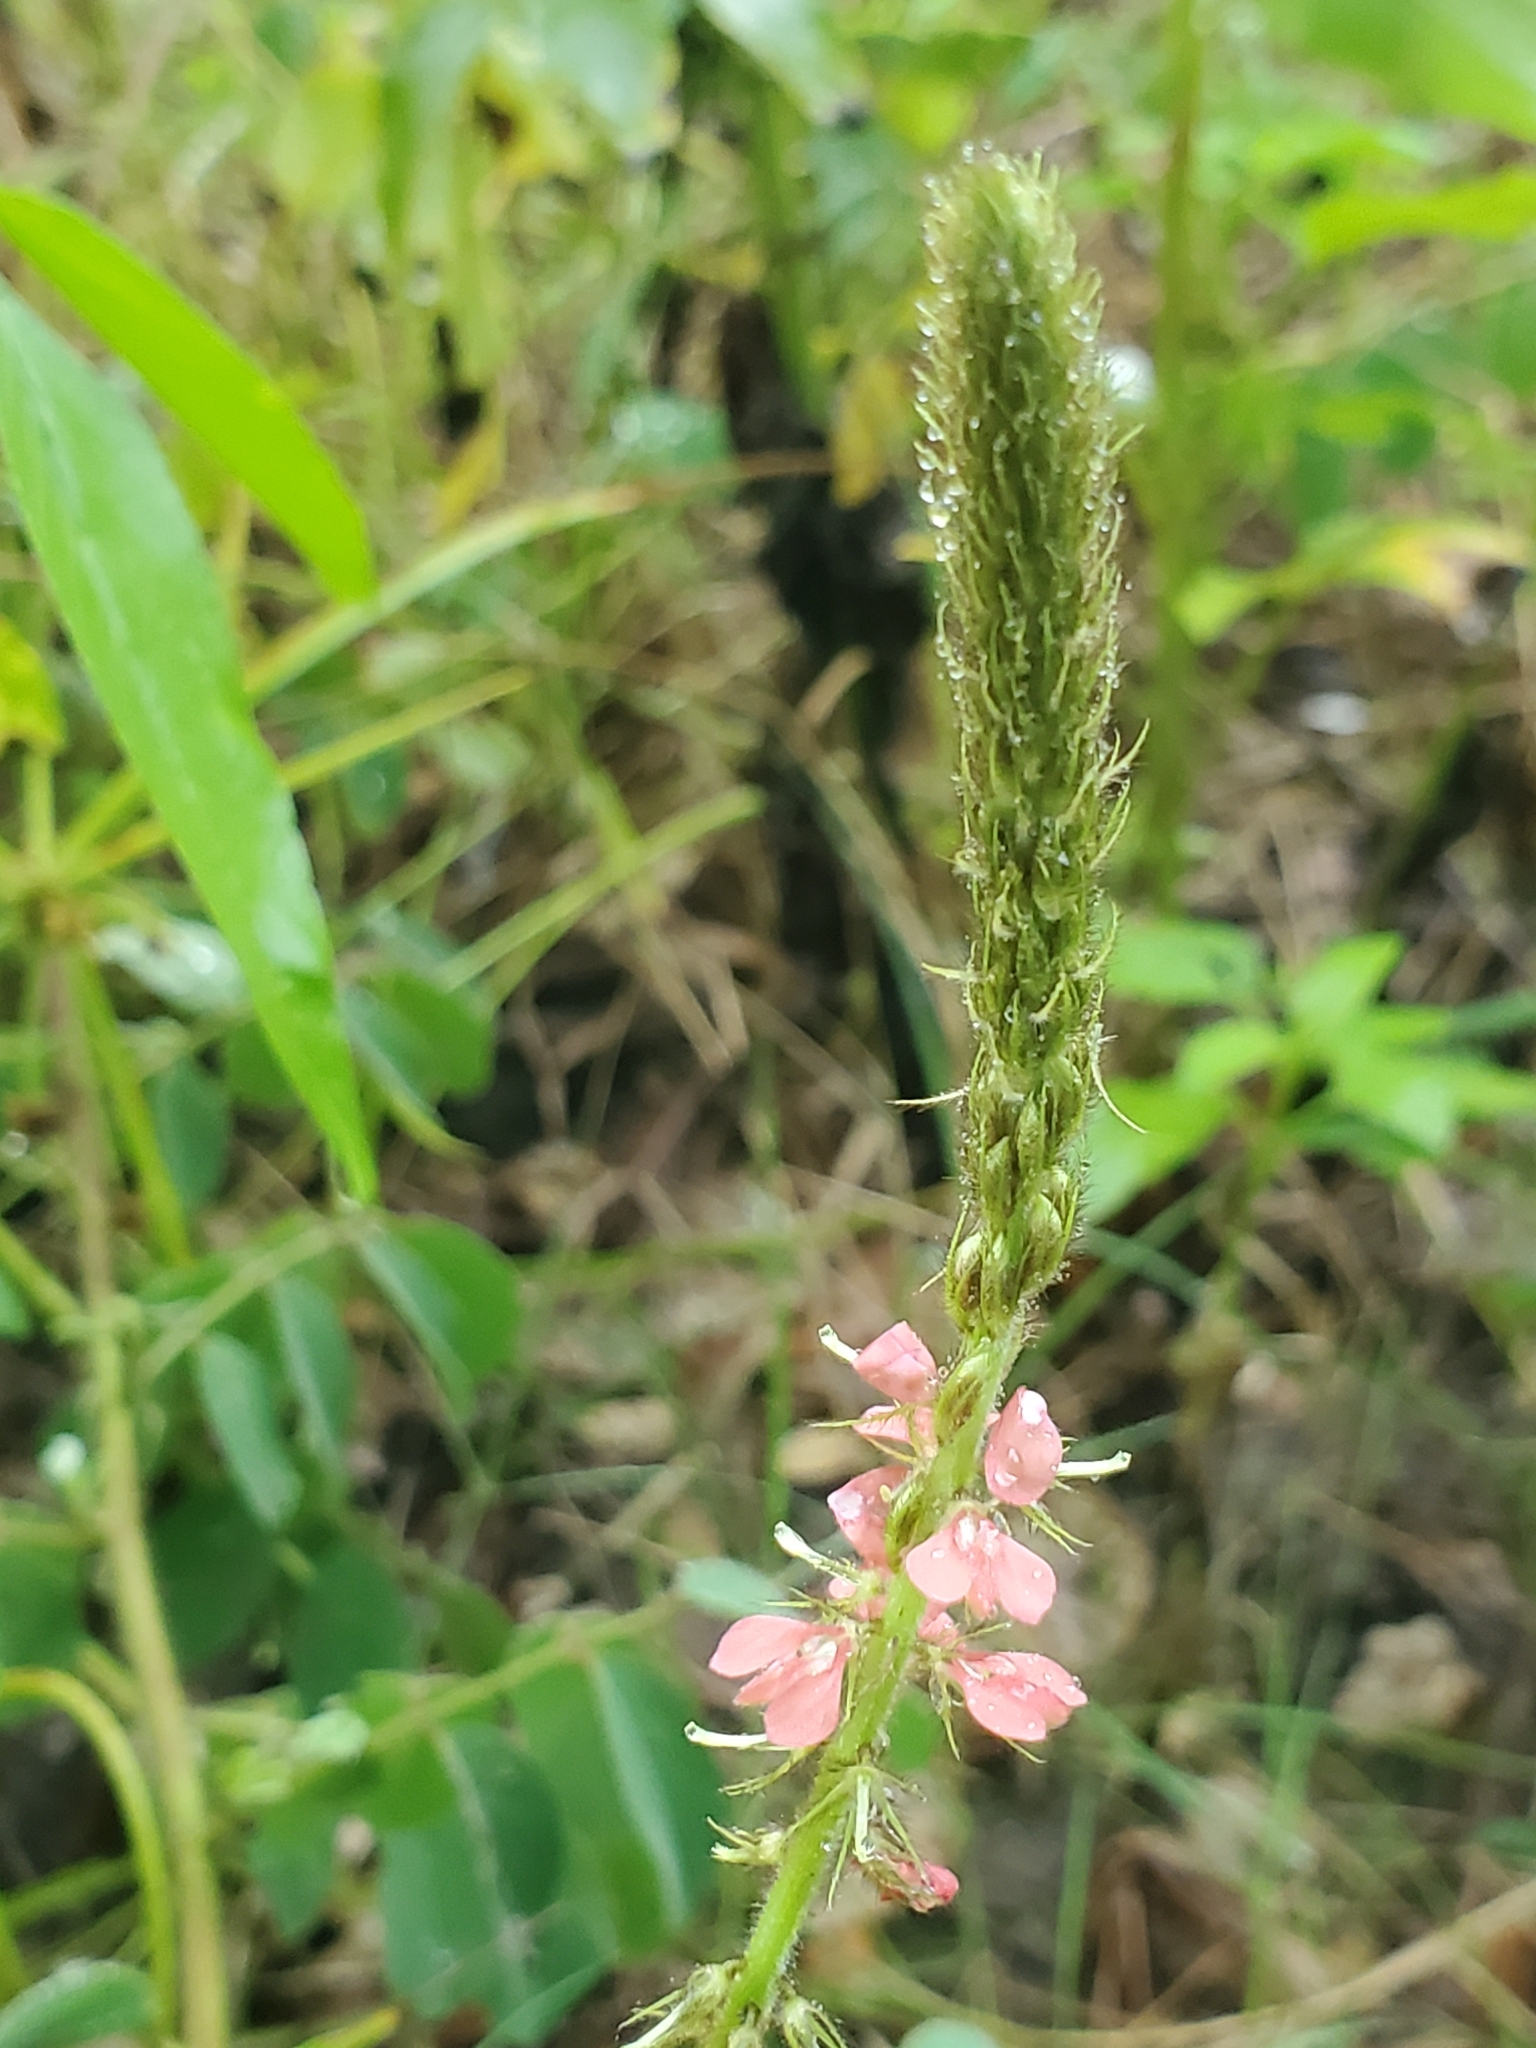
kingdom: Plantae
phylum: Tracheophyta
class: Magnoliopsida
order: Fabales
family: Fabaceae
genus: Indigofera
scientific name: Indigofera hirsuta
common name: Hairy indigo
